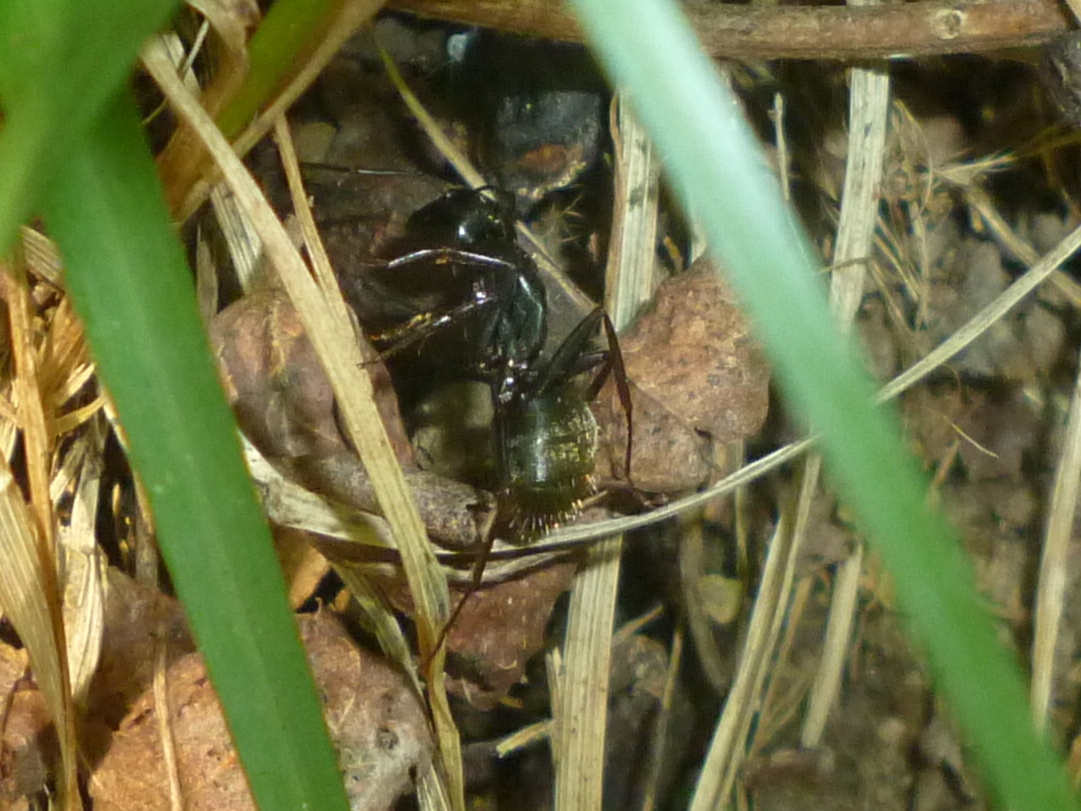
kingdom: Animalia
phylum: Arthropoda
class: Insecta
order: Hymenoptera
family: Formicidae
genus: Camponotus
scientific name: Camponotus pennsylvanicus
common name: Black carpenter ant
